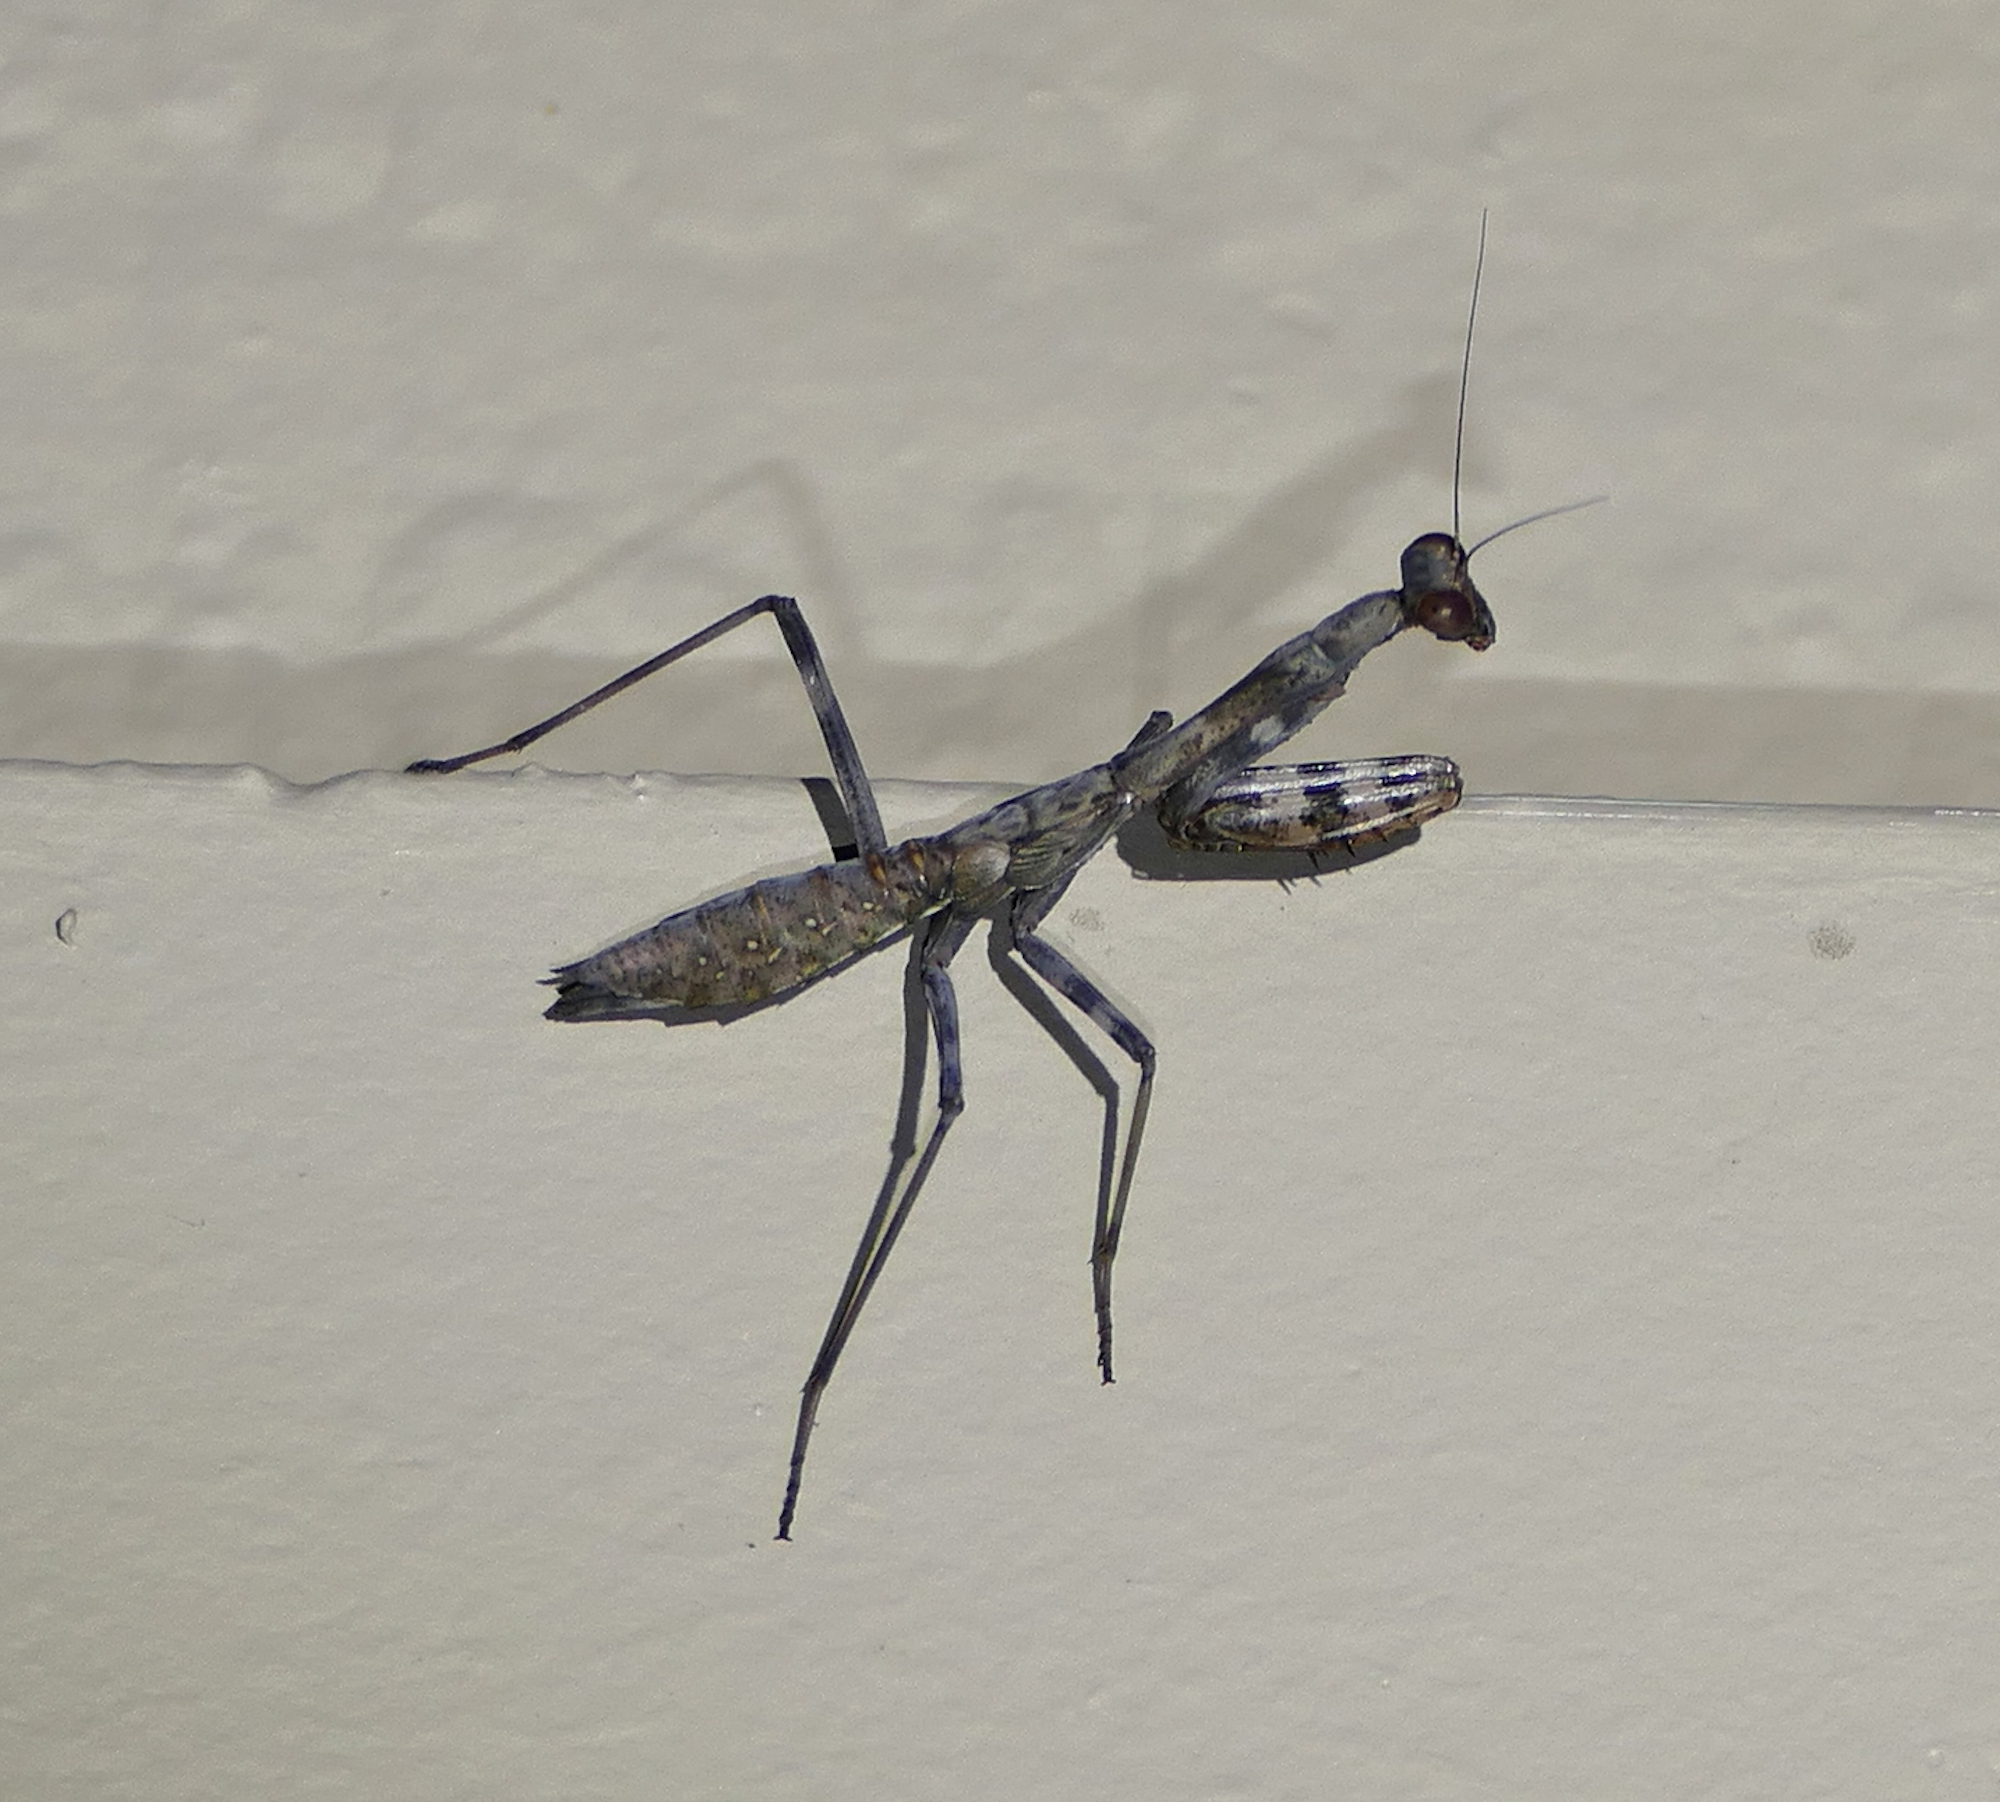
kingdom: Animalia
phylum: Arthropoda
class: Insecta
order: Mantodea
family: Mantidae
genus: Stagmomantis
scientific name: Stagmomantis limbata
